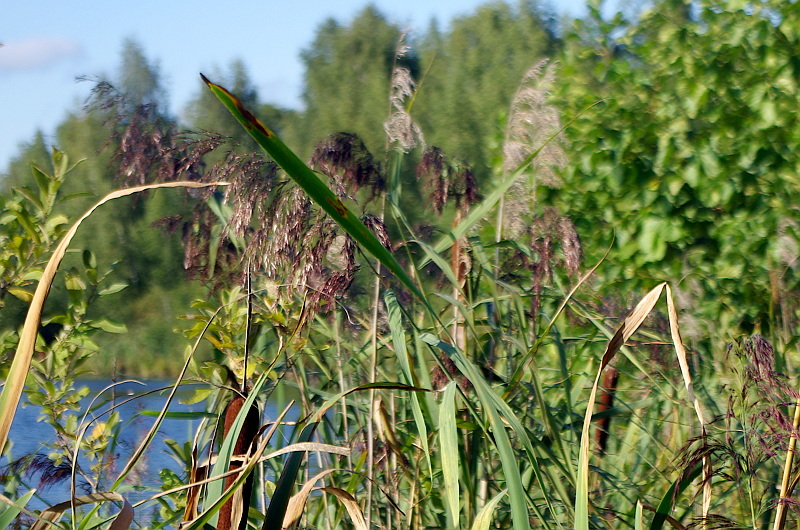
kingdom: Plantae
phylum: Tracheophyta
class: Liliopsida
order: Poales
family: Poaceae
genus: Phragmites
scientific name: Phragmites australis
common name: Common reed
